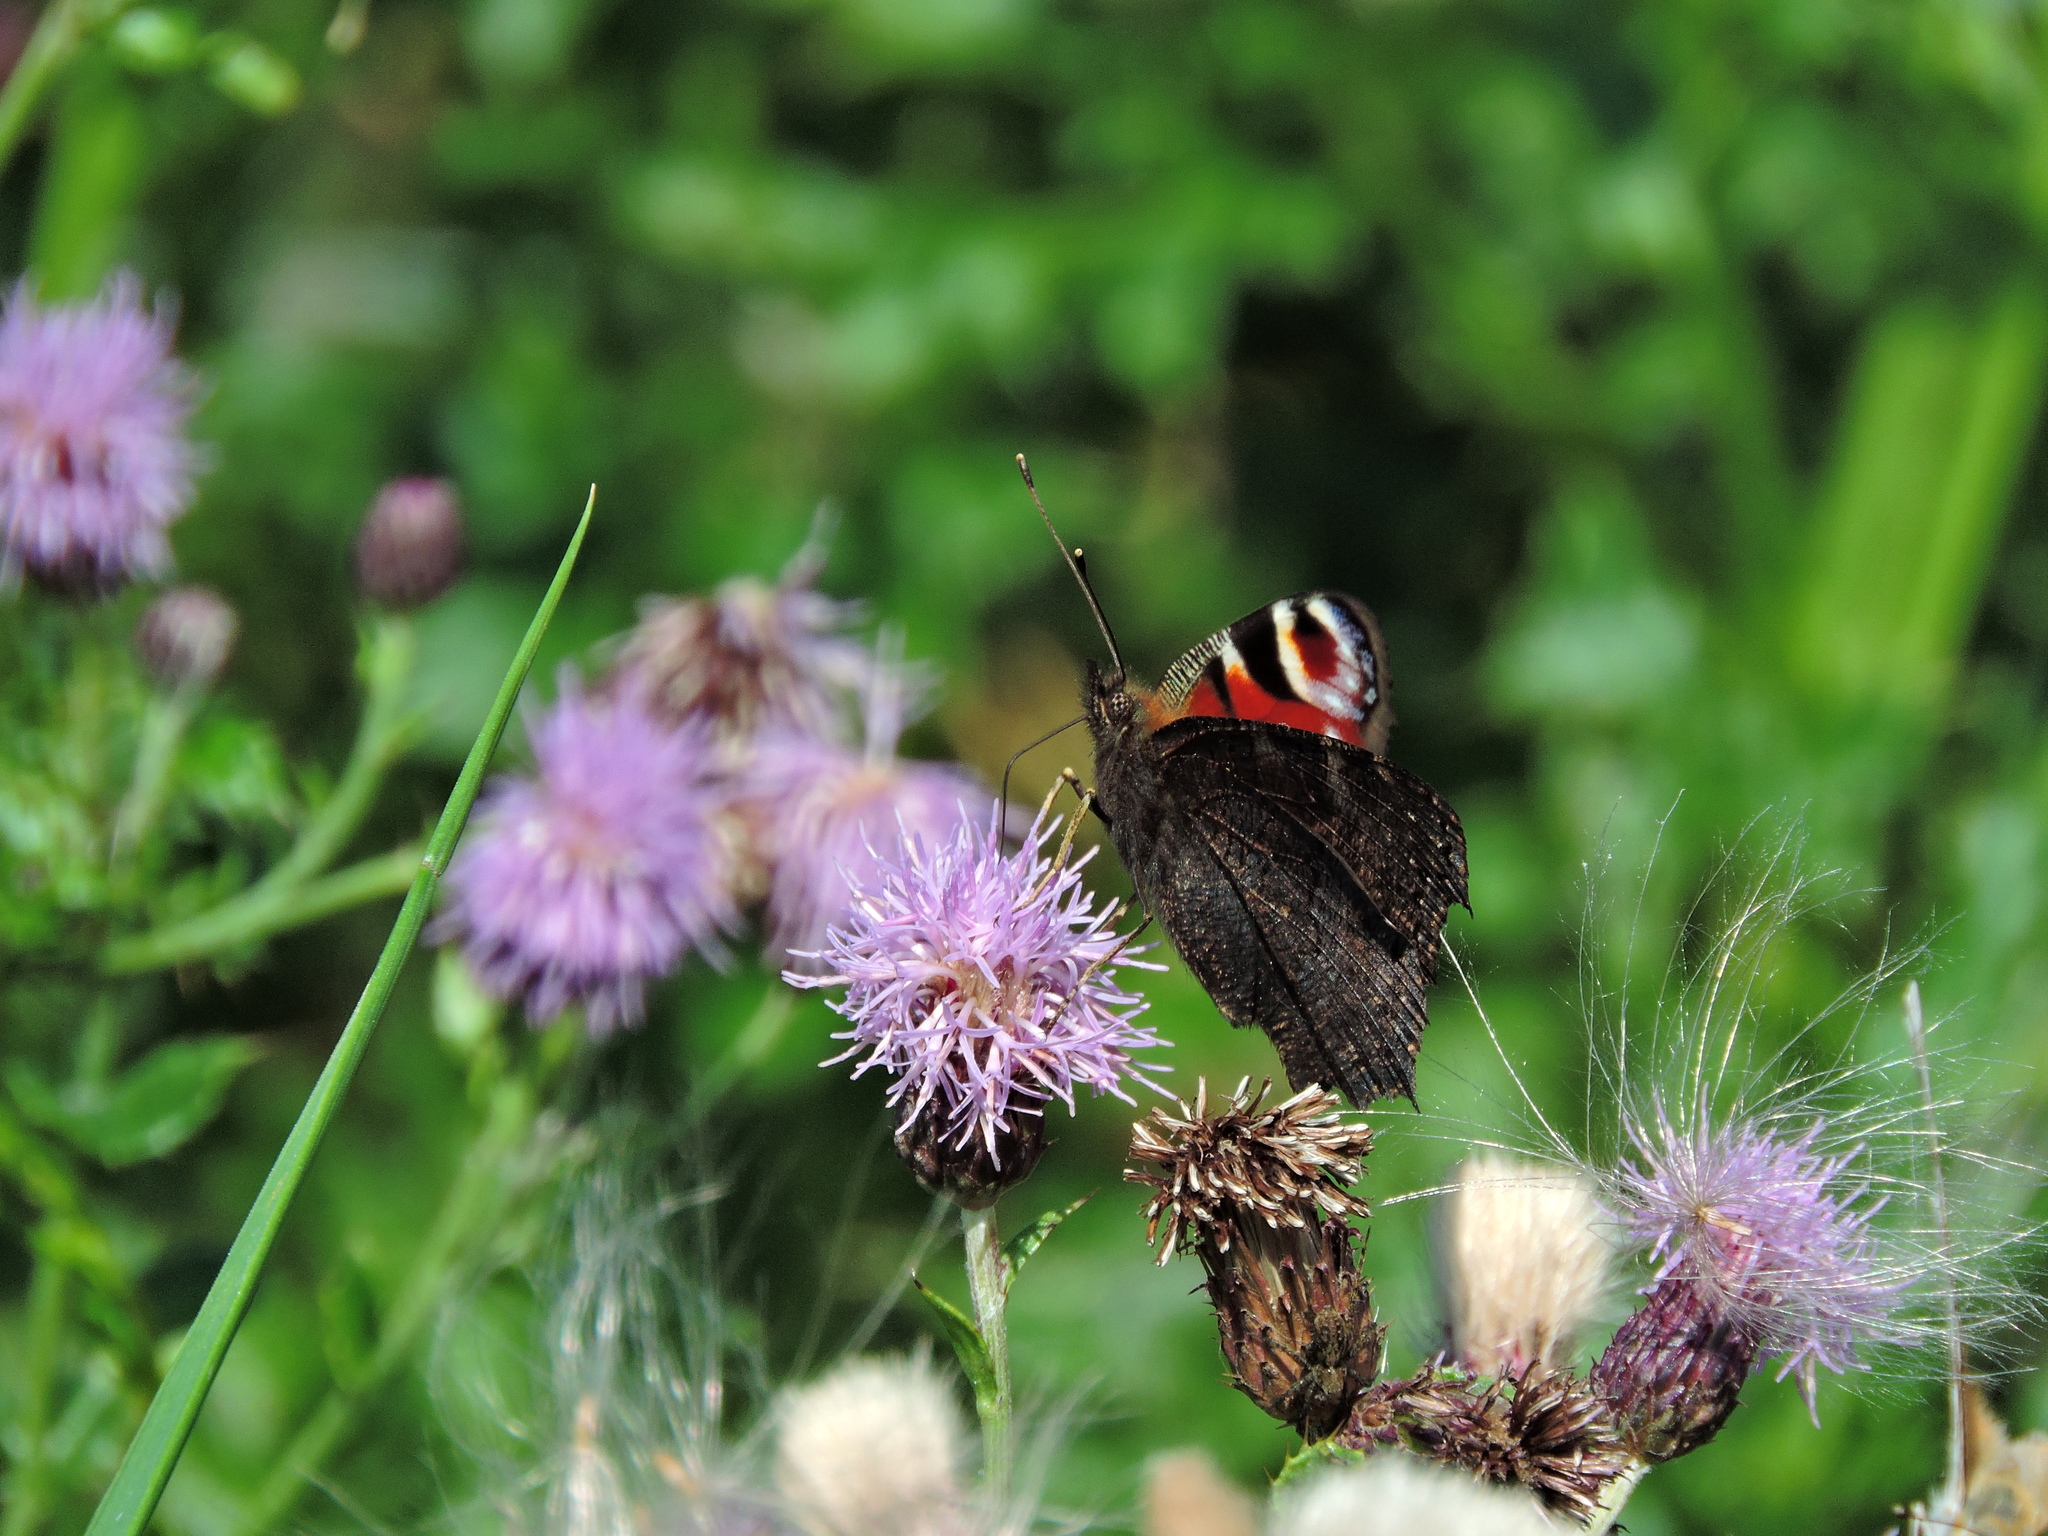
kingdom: Animalia
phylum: Arthropoda
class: Insecta
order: Lepidoptera
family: Nymphalidae
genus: Aglais
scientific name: Aglais io
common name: Peacock
